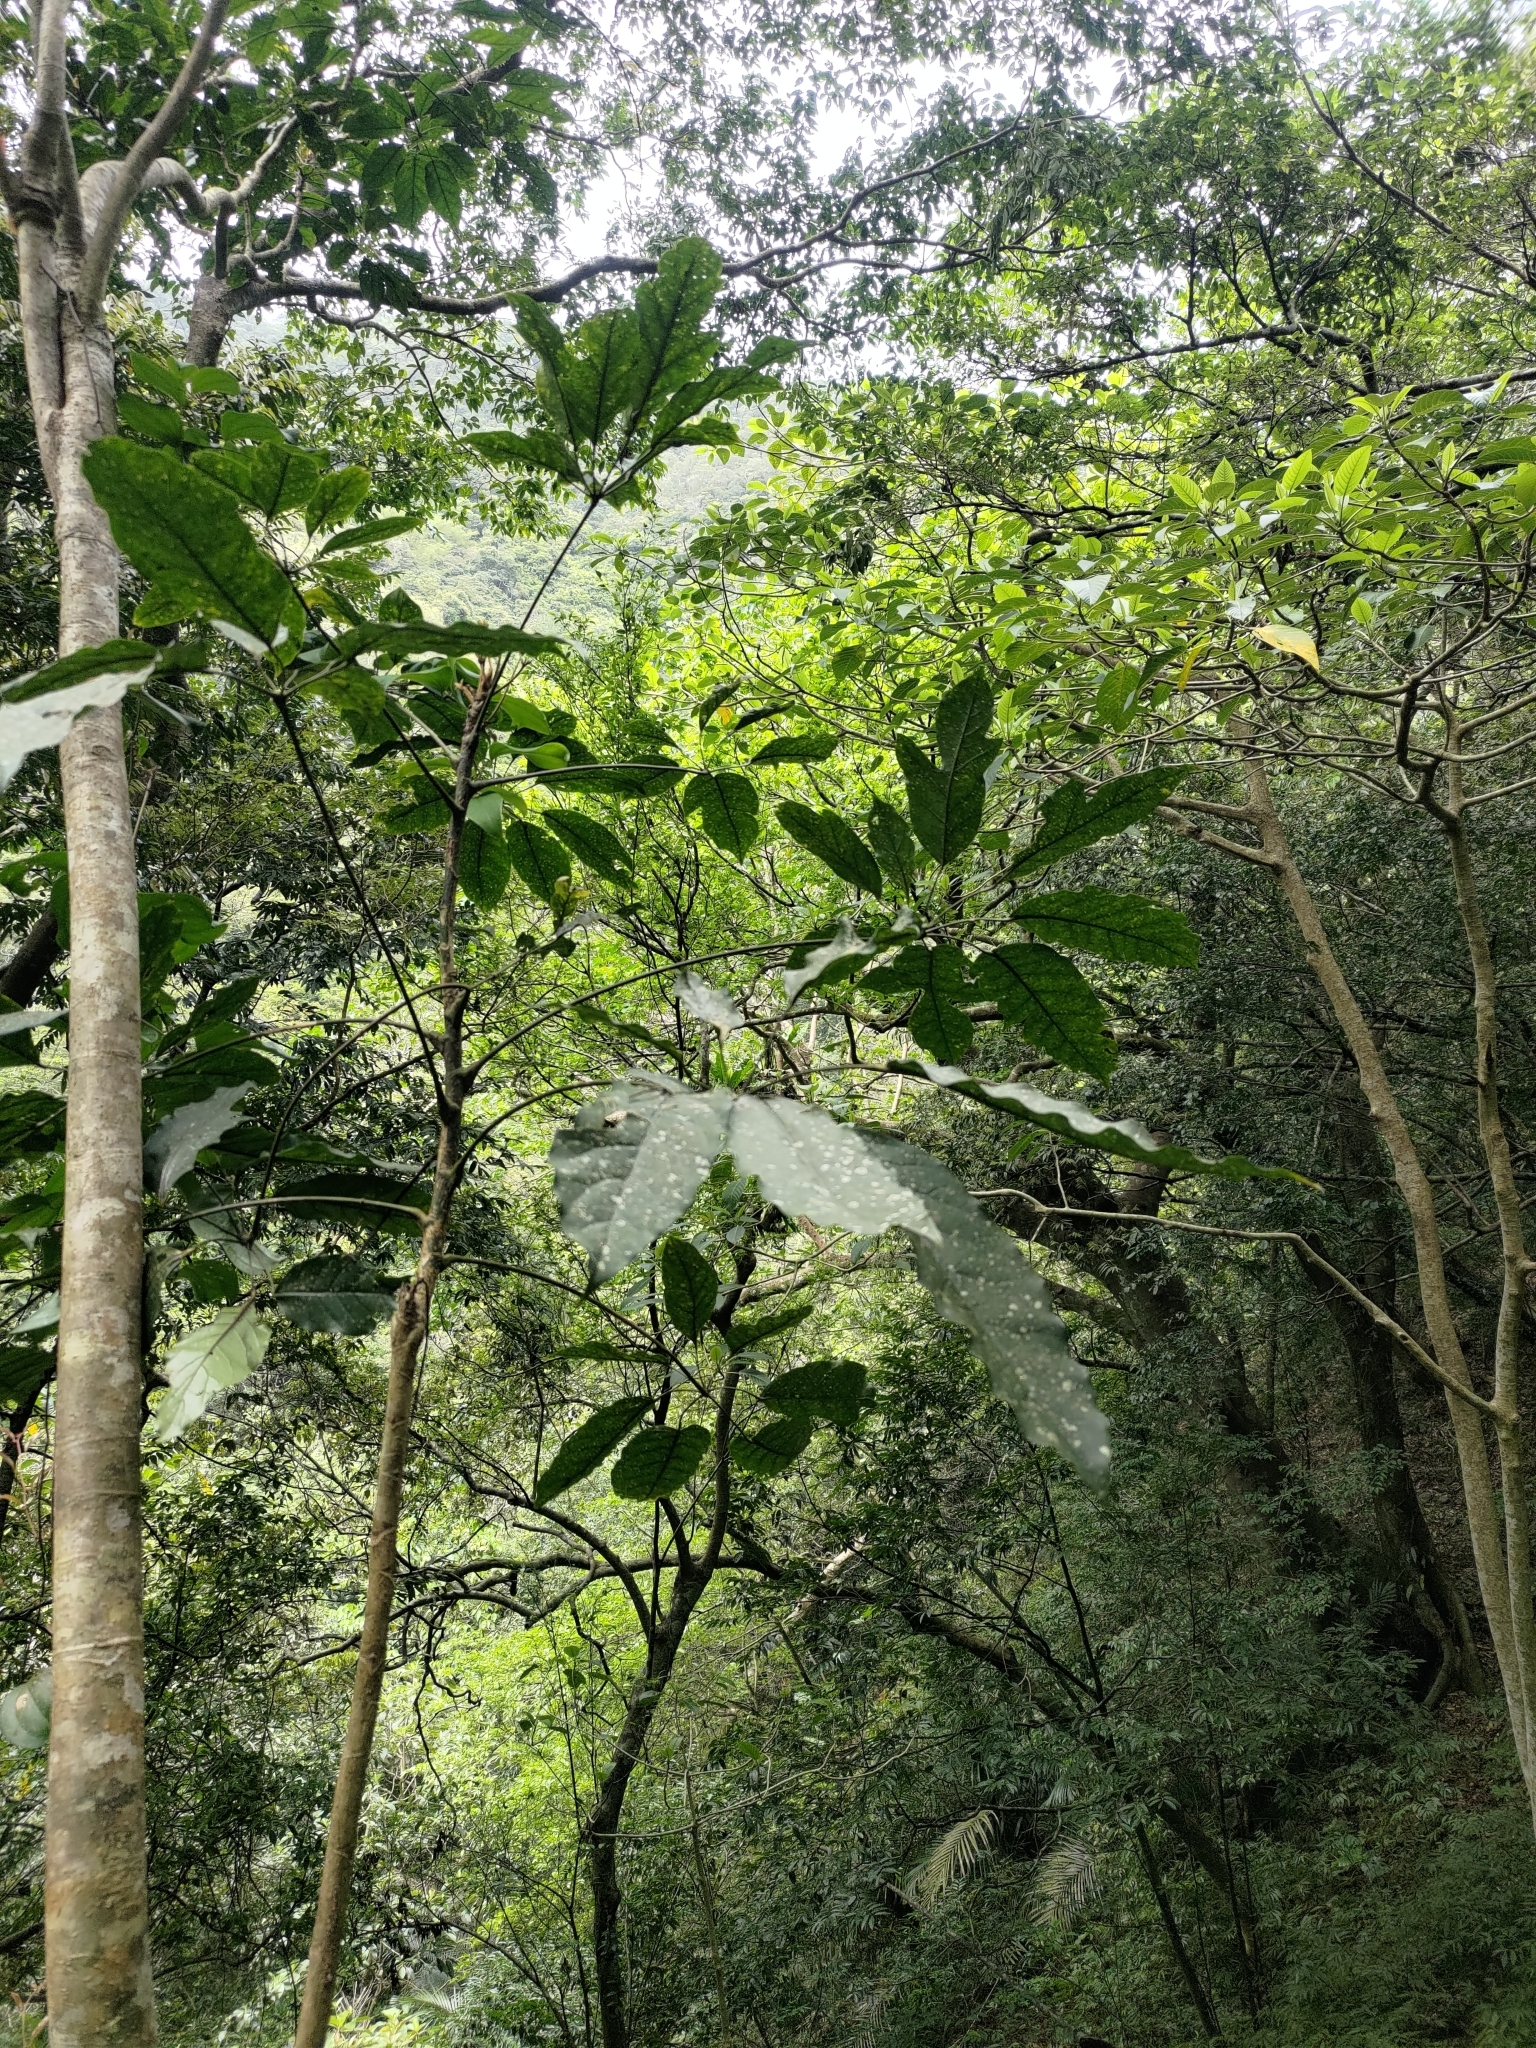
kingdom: Plantae
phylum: Tracheophyta
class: Magnoliopsida
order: Apiales
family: Araliaceae
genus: Heptapleurum
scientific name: Heptapleurum heptaphyllum
